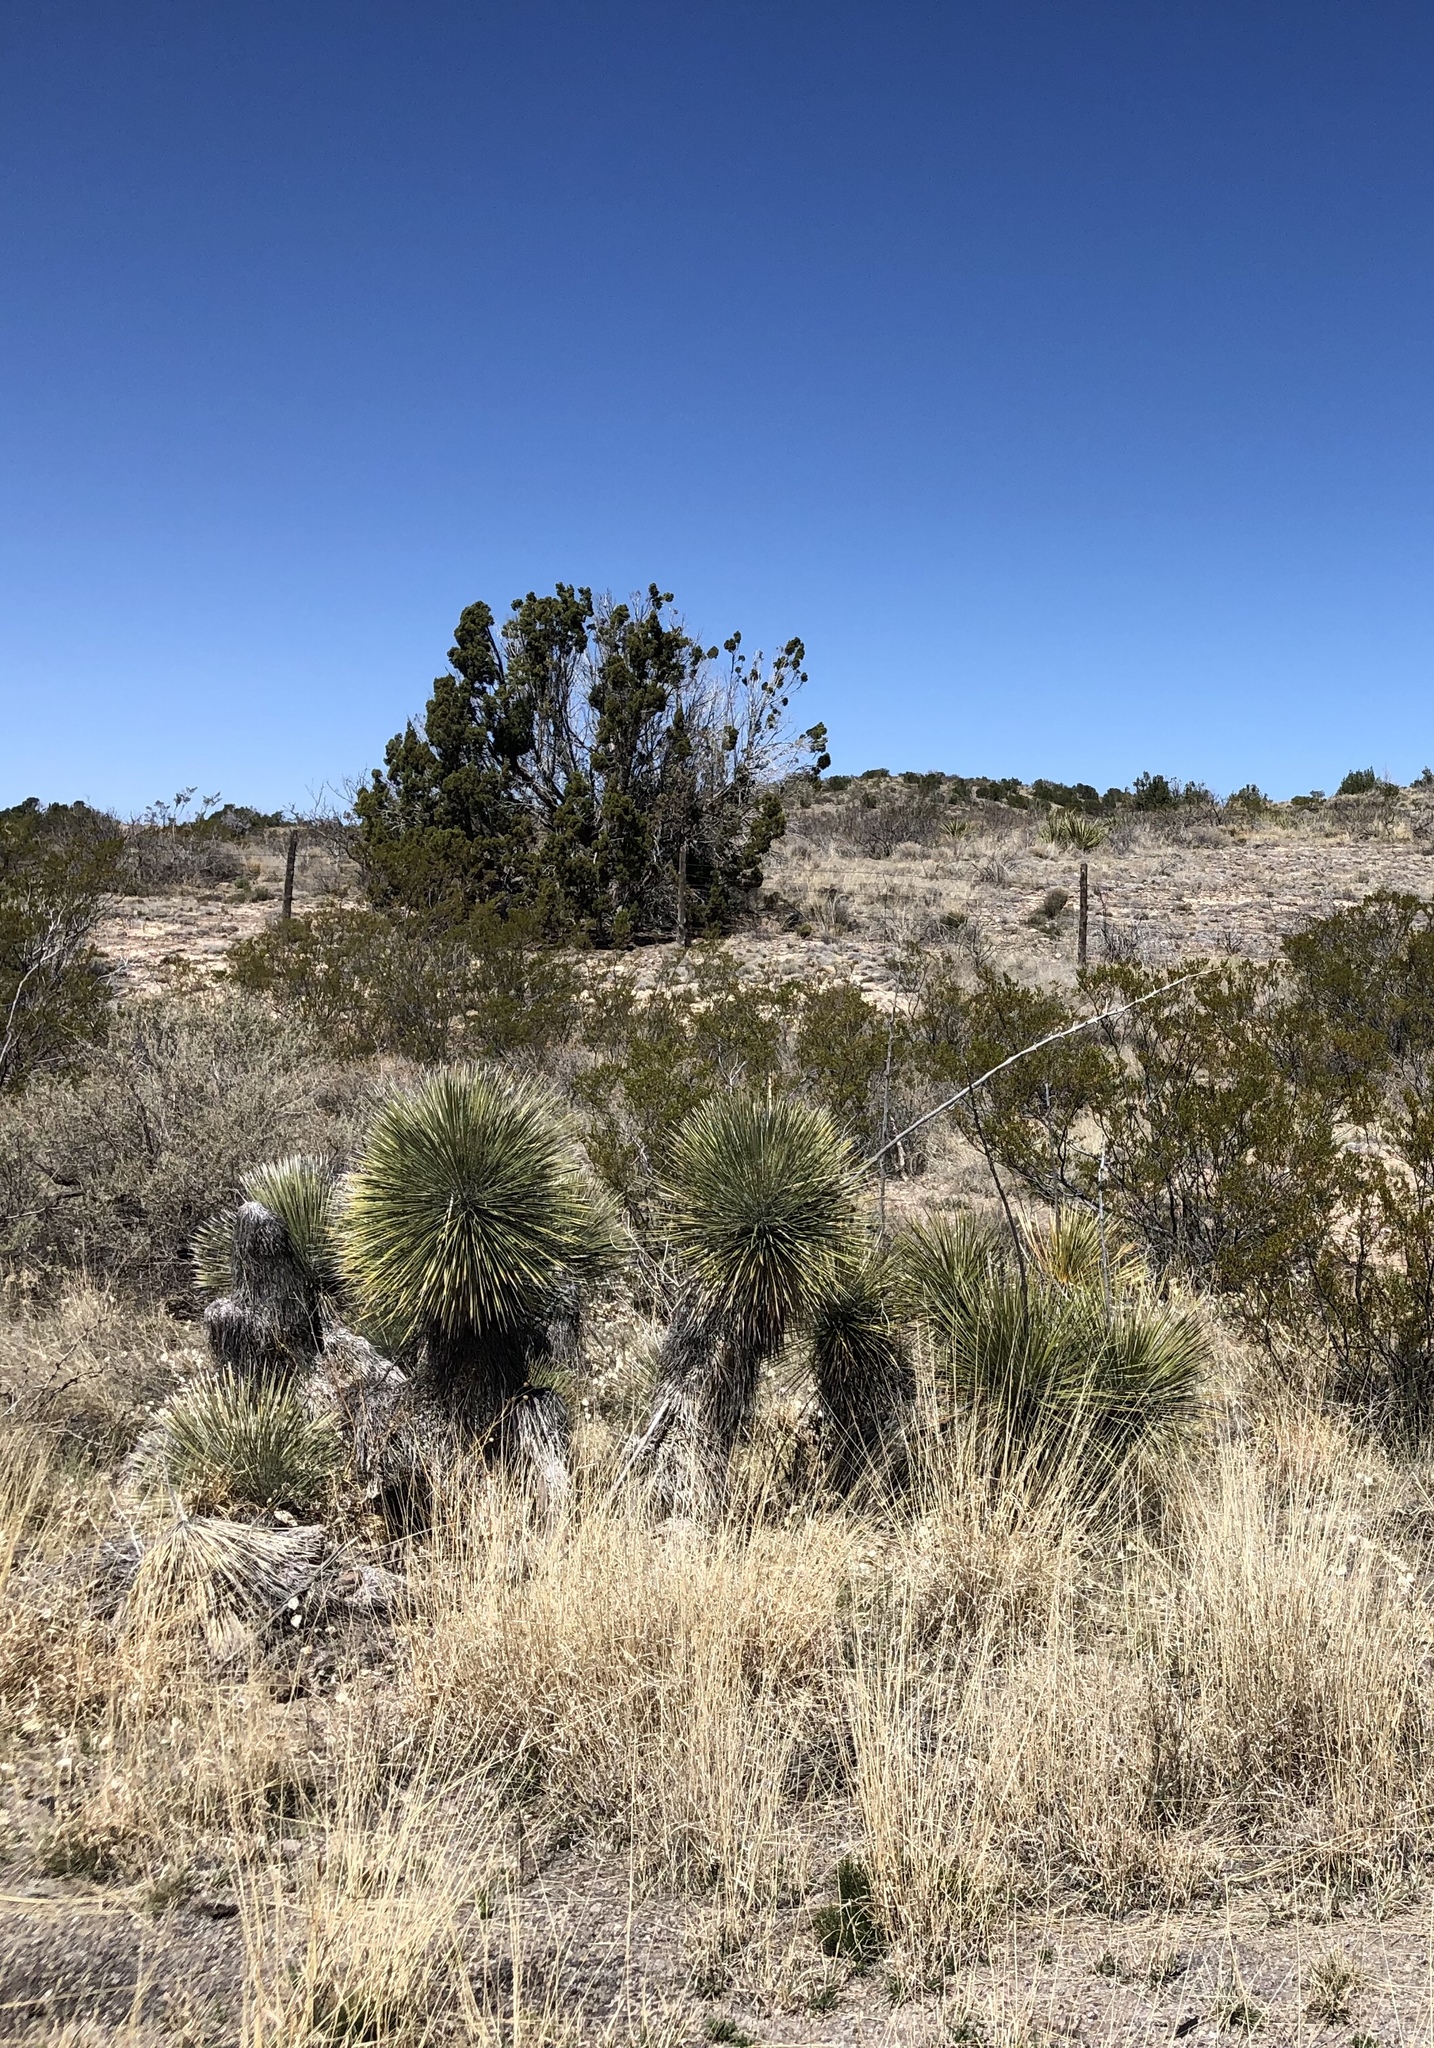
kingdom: Plantae
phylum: Tracheophyta
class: Liliopsida
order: Asparagales
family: Asparagaceae
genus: Yucca
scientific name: Yucca elata
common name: Palmella
